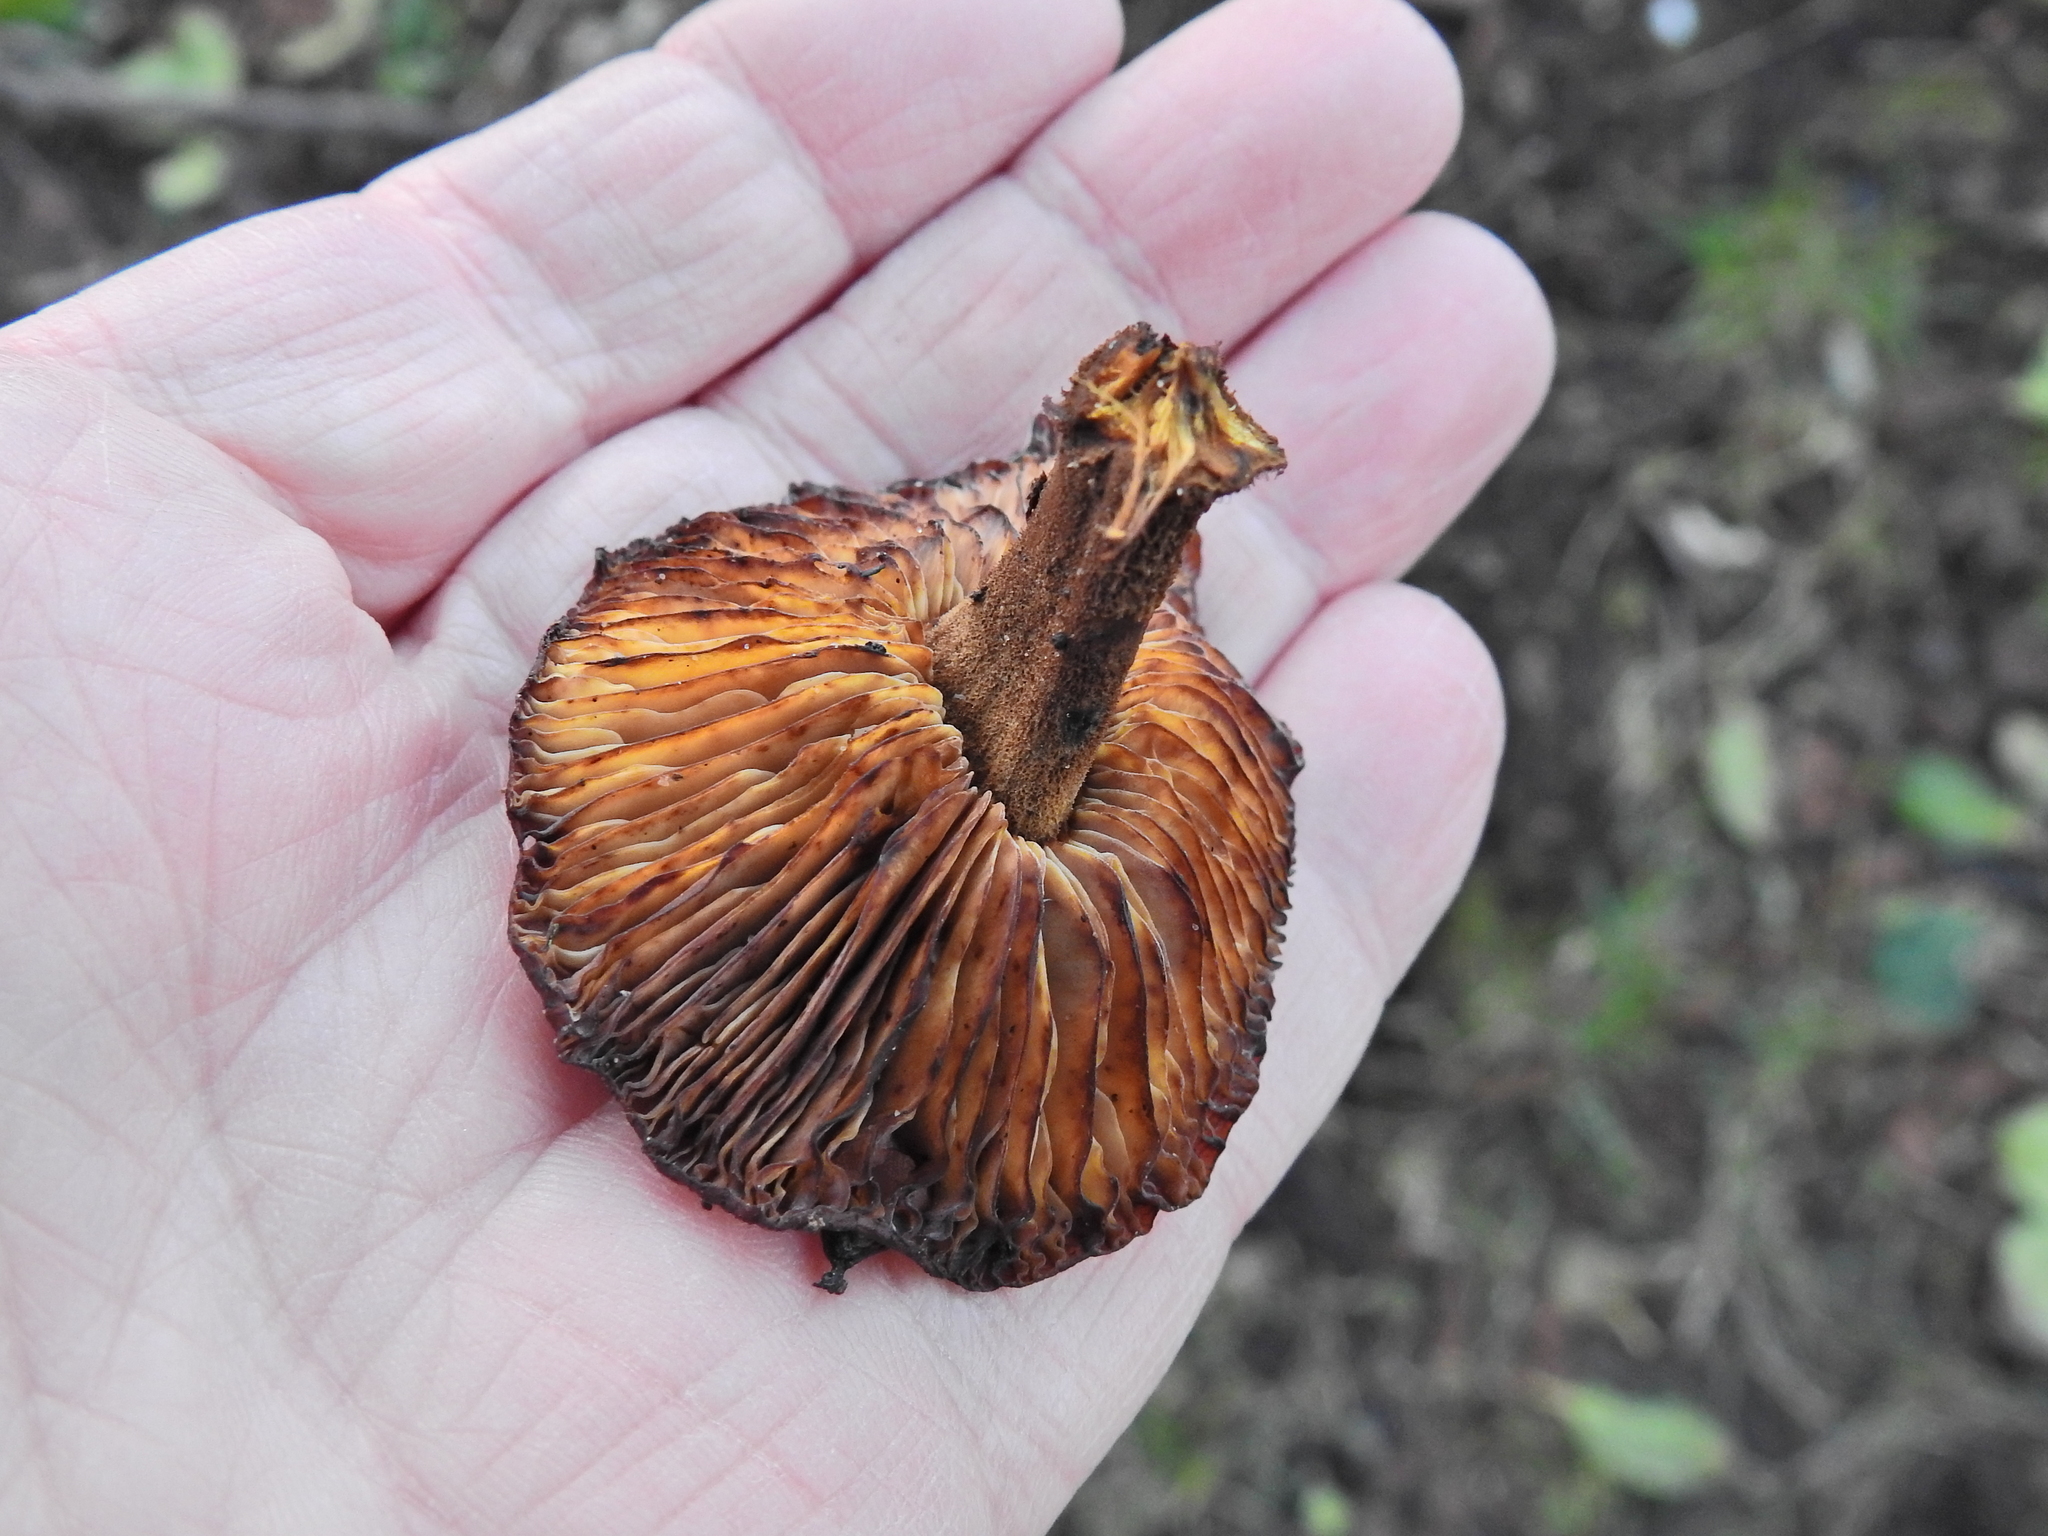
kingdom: Fungi
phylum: Basidiomycota
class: Agaricomycetes
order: Agaricales
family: Physalacriaceae
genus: Flammulina
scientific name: Flammulina
